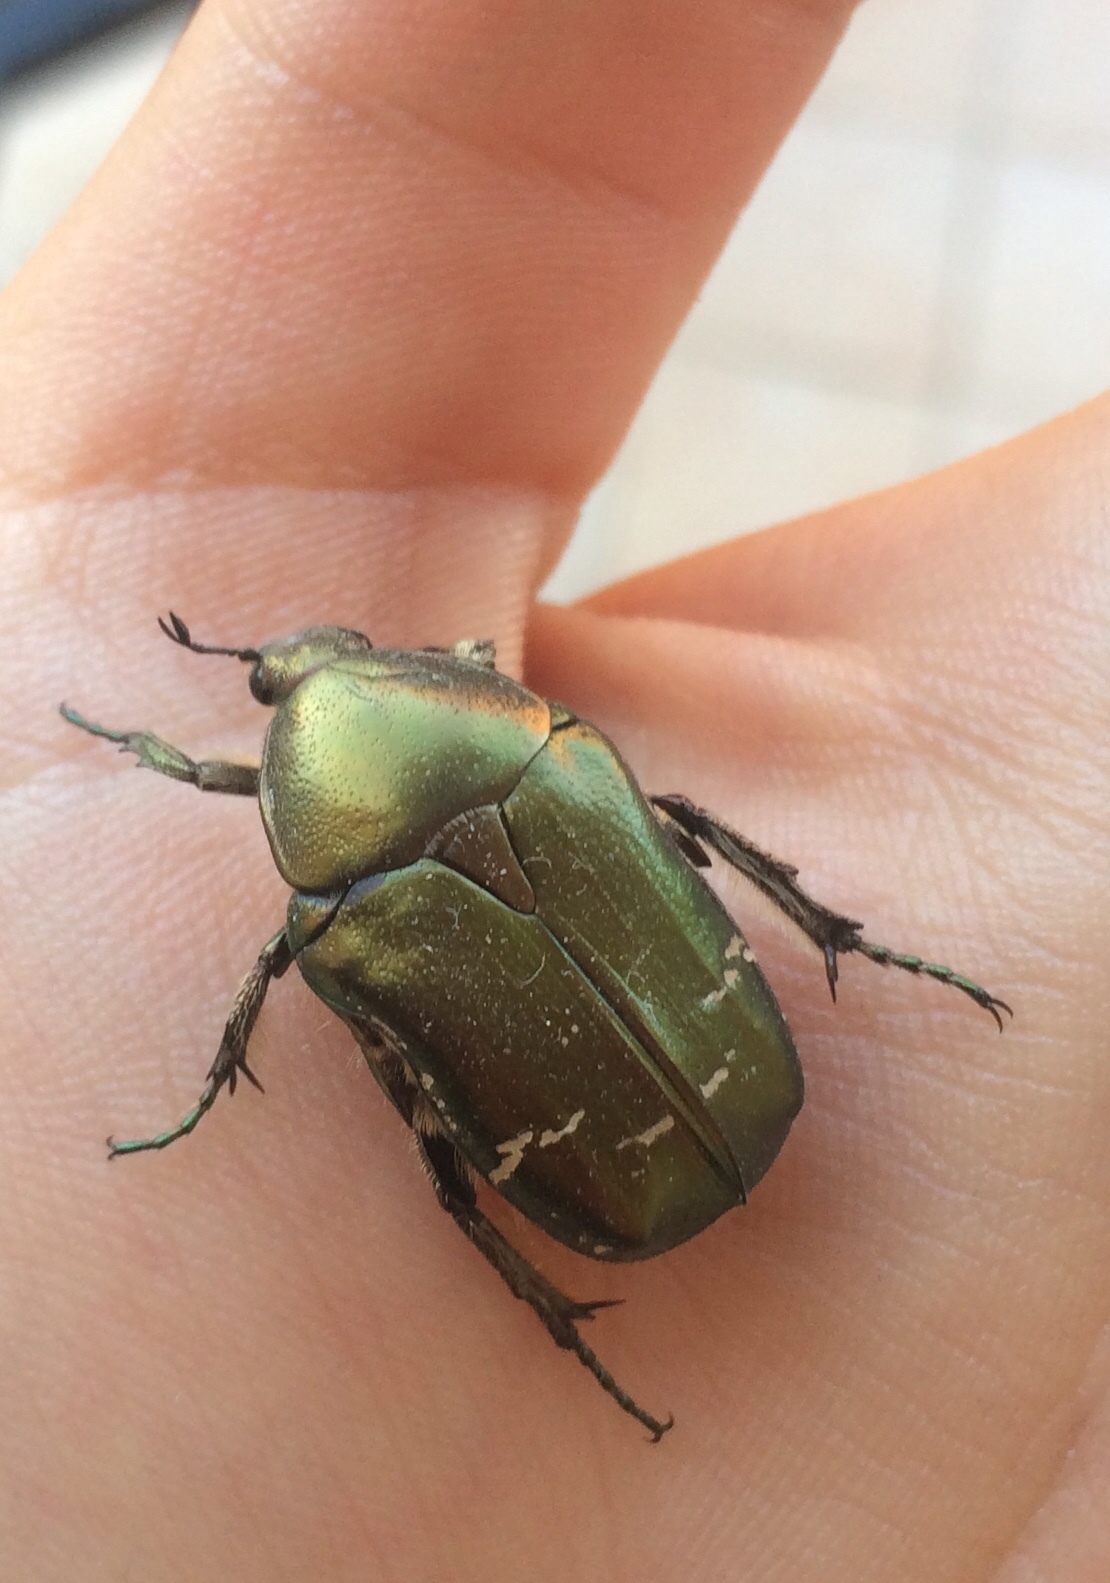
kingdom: Animalia
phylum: Arthropoda
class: Insecta
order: Coleoptera
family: Scarabaeidae
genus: Cetonia
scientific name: Cetonia aurata
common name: Rose chafer
